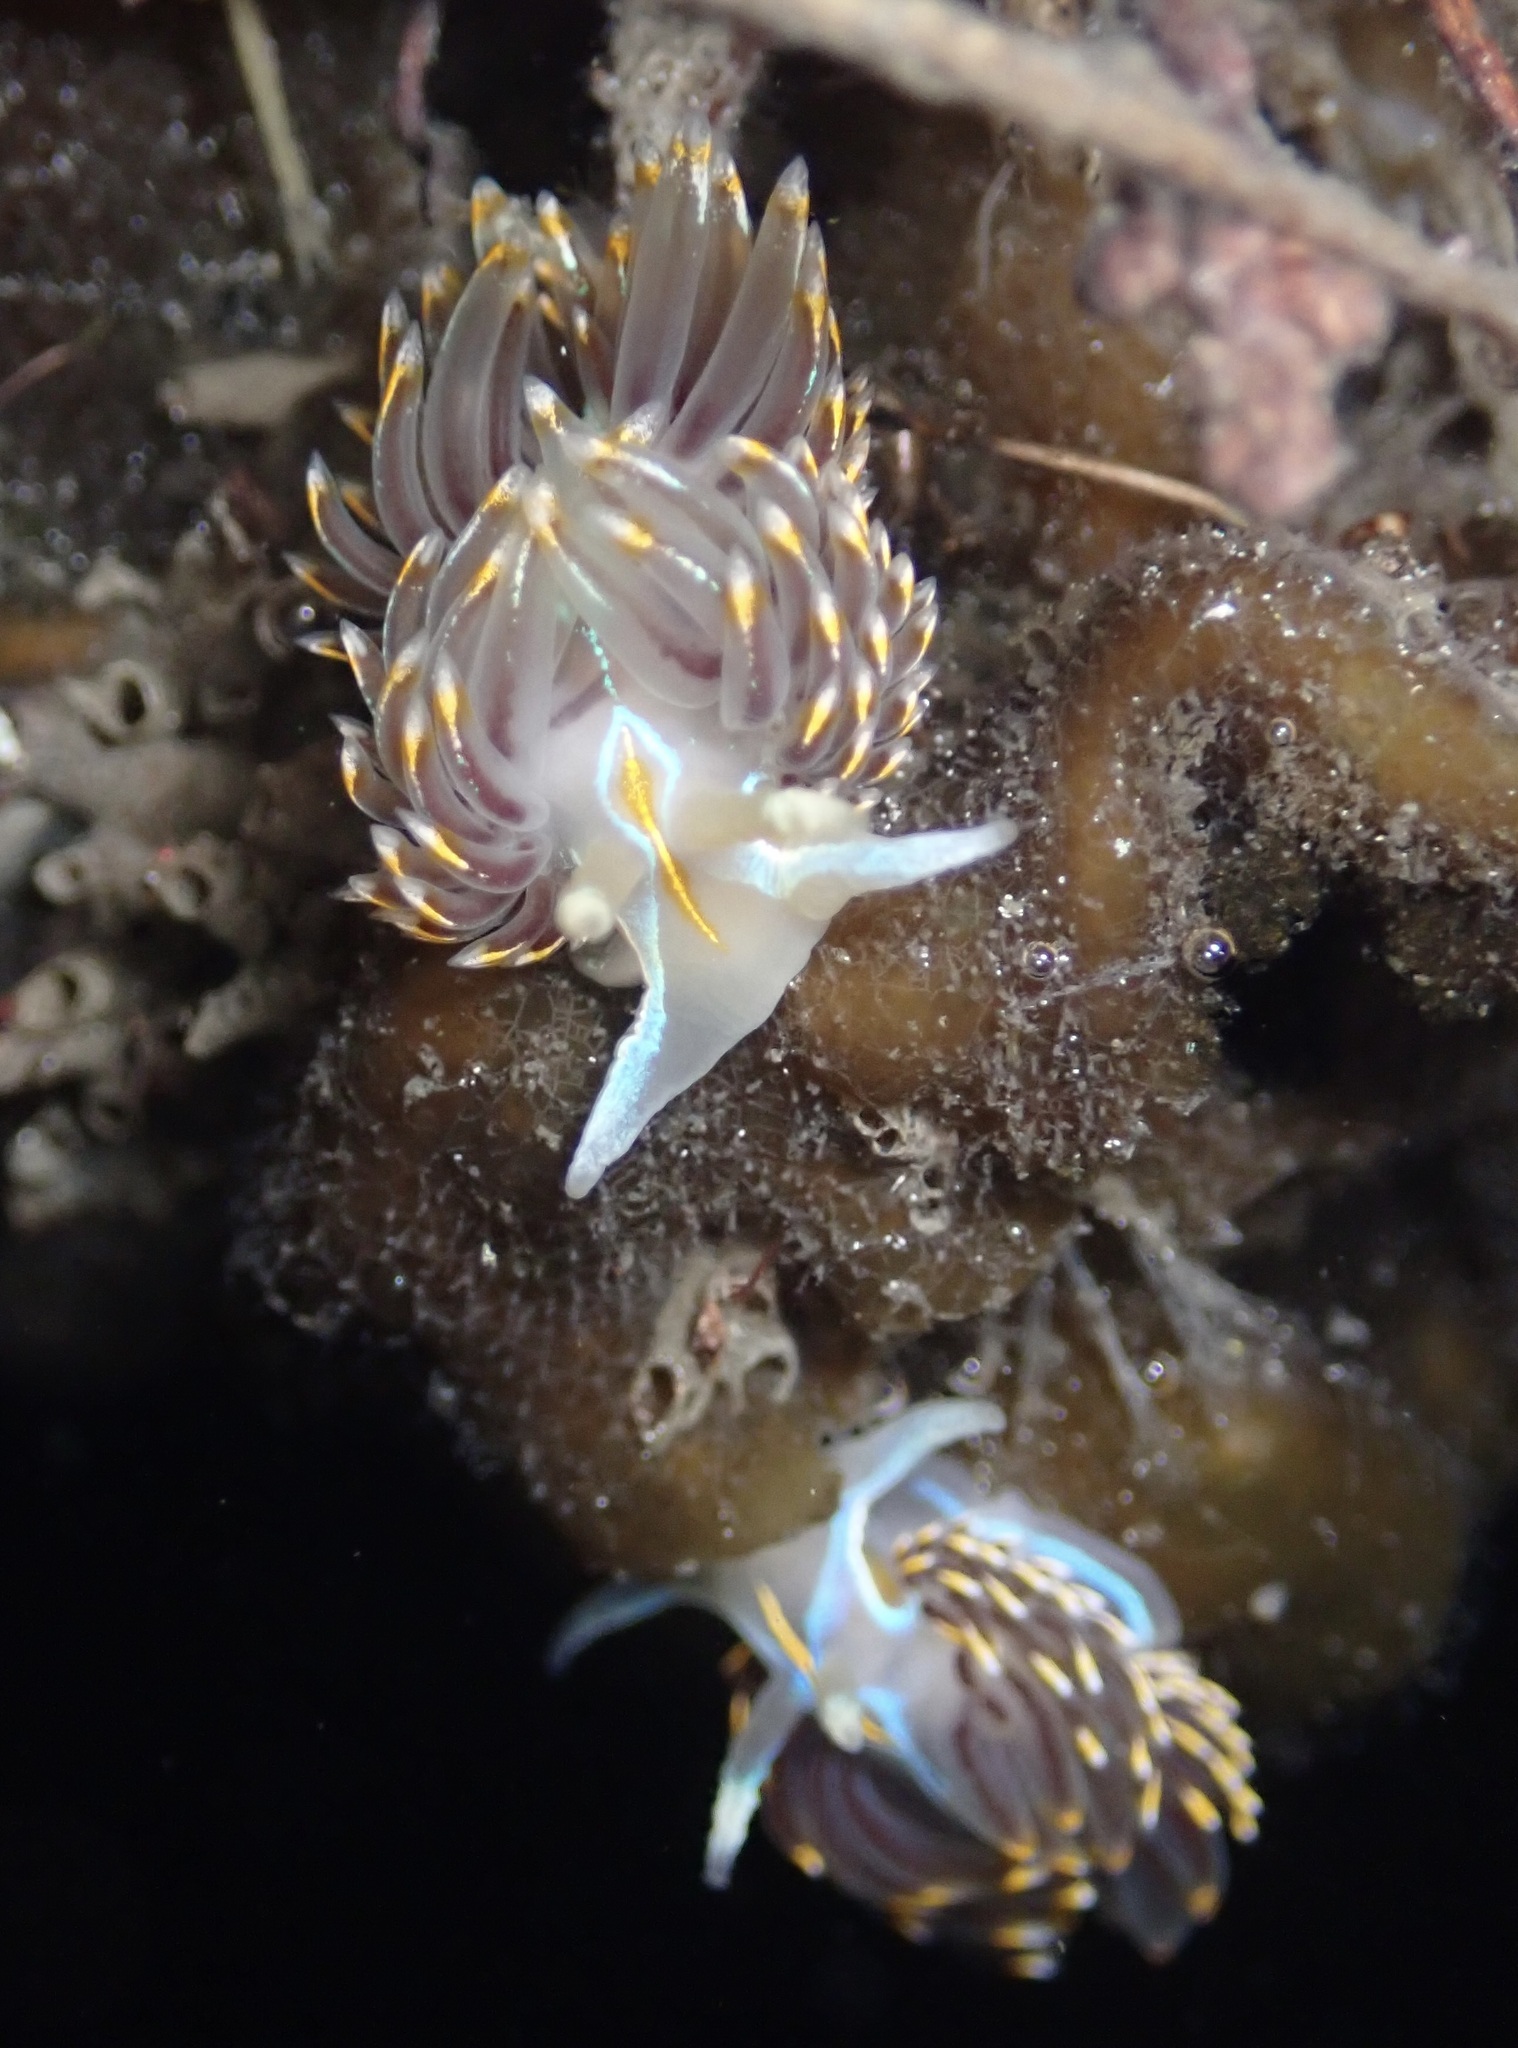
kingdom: Animalia
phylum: Mollusca
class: Gastropoda
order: Nudibranchia
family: Myrrhinidae
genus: Hermissenda
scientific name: Hermissenda opalescens
